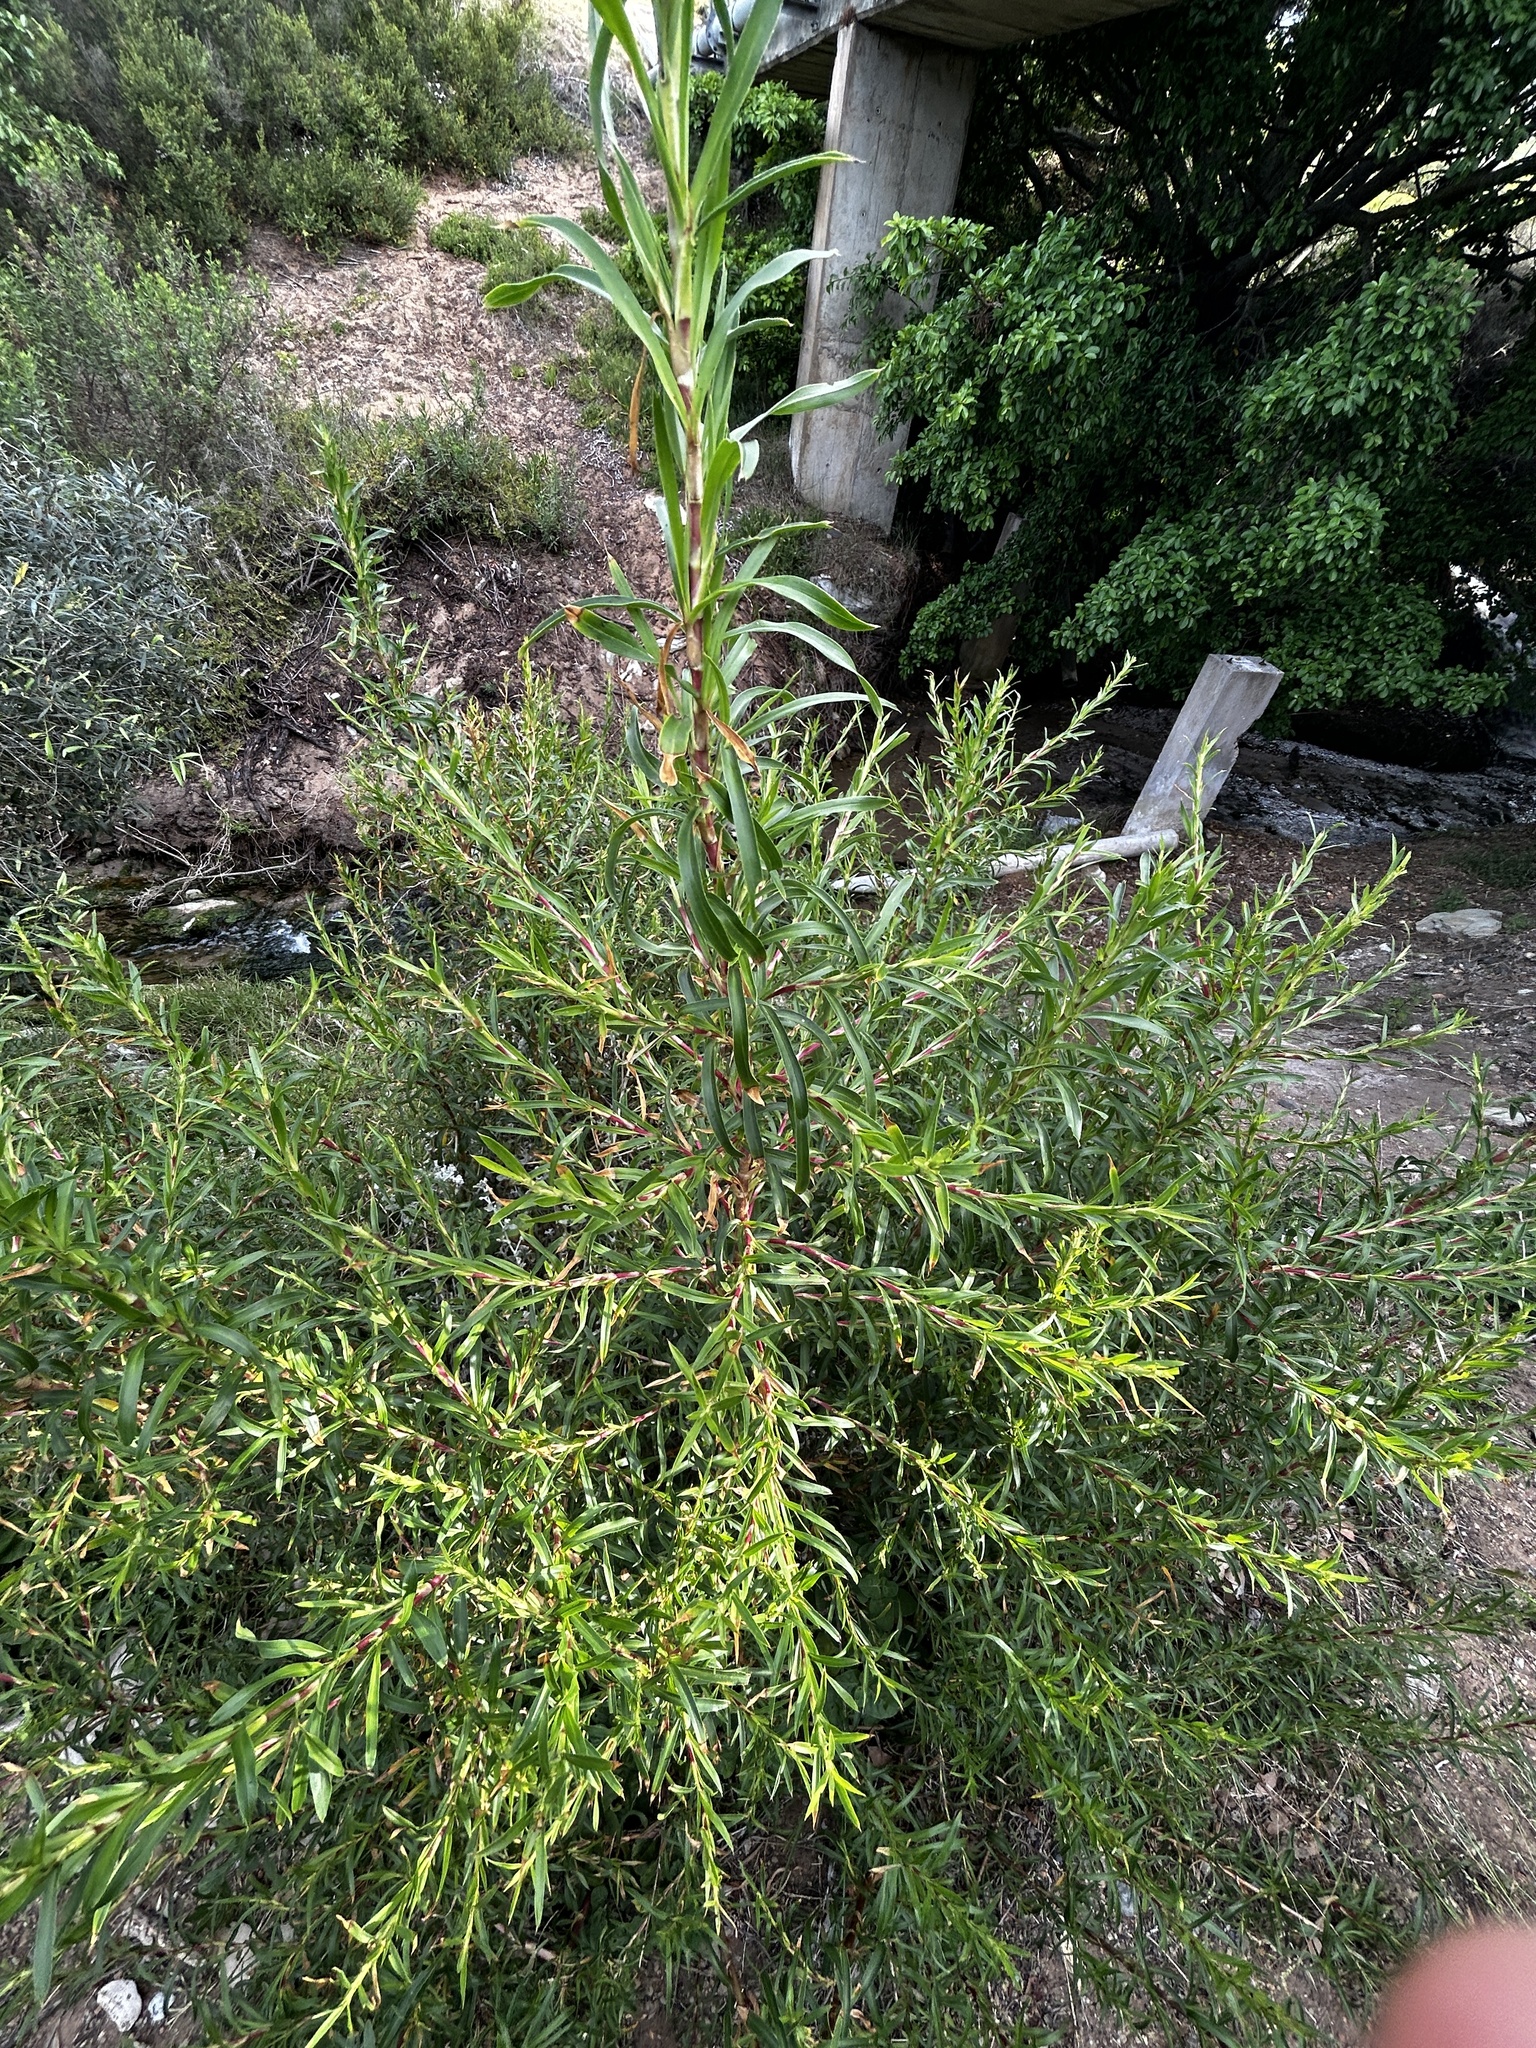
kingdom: Plantae
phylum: Tracheophyta
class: Magnoliopsida
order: Rosales
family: Rosaceae
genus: Cliffortia
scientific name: Cliffortia longifolia
